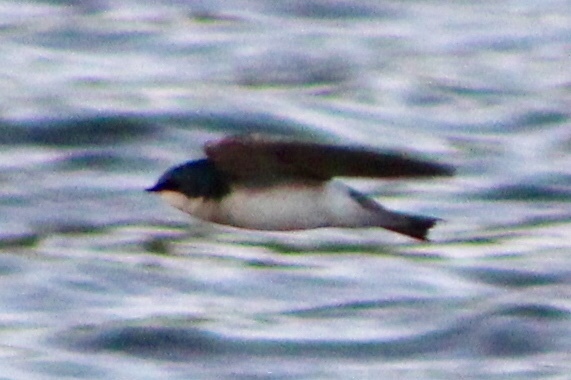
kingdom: Animalia
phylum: Chordata
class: Aves
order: Passeriformes
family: Hirundinidae
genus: Tachycineta
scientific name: Tachycineta bicolor
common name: Tree swallow
